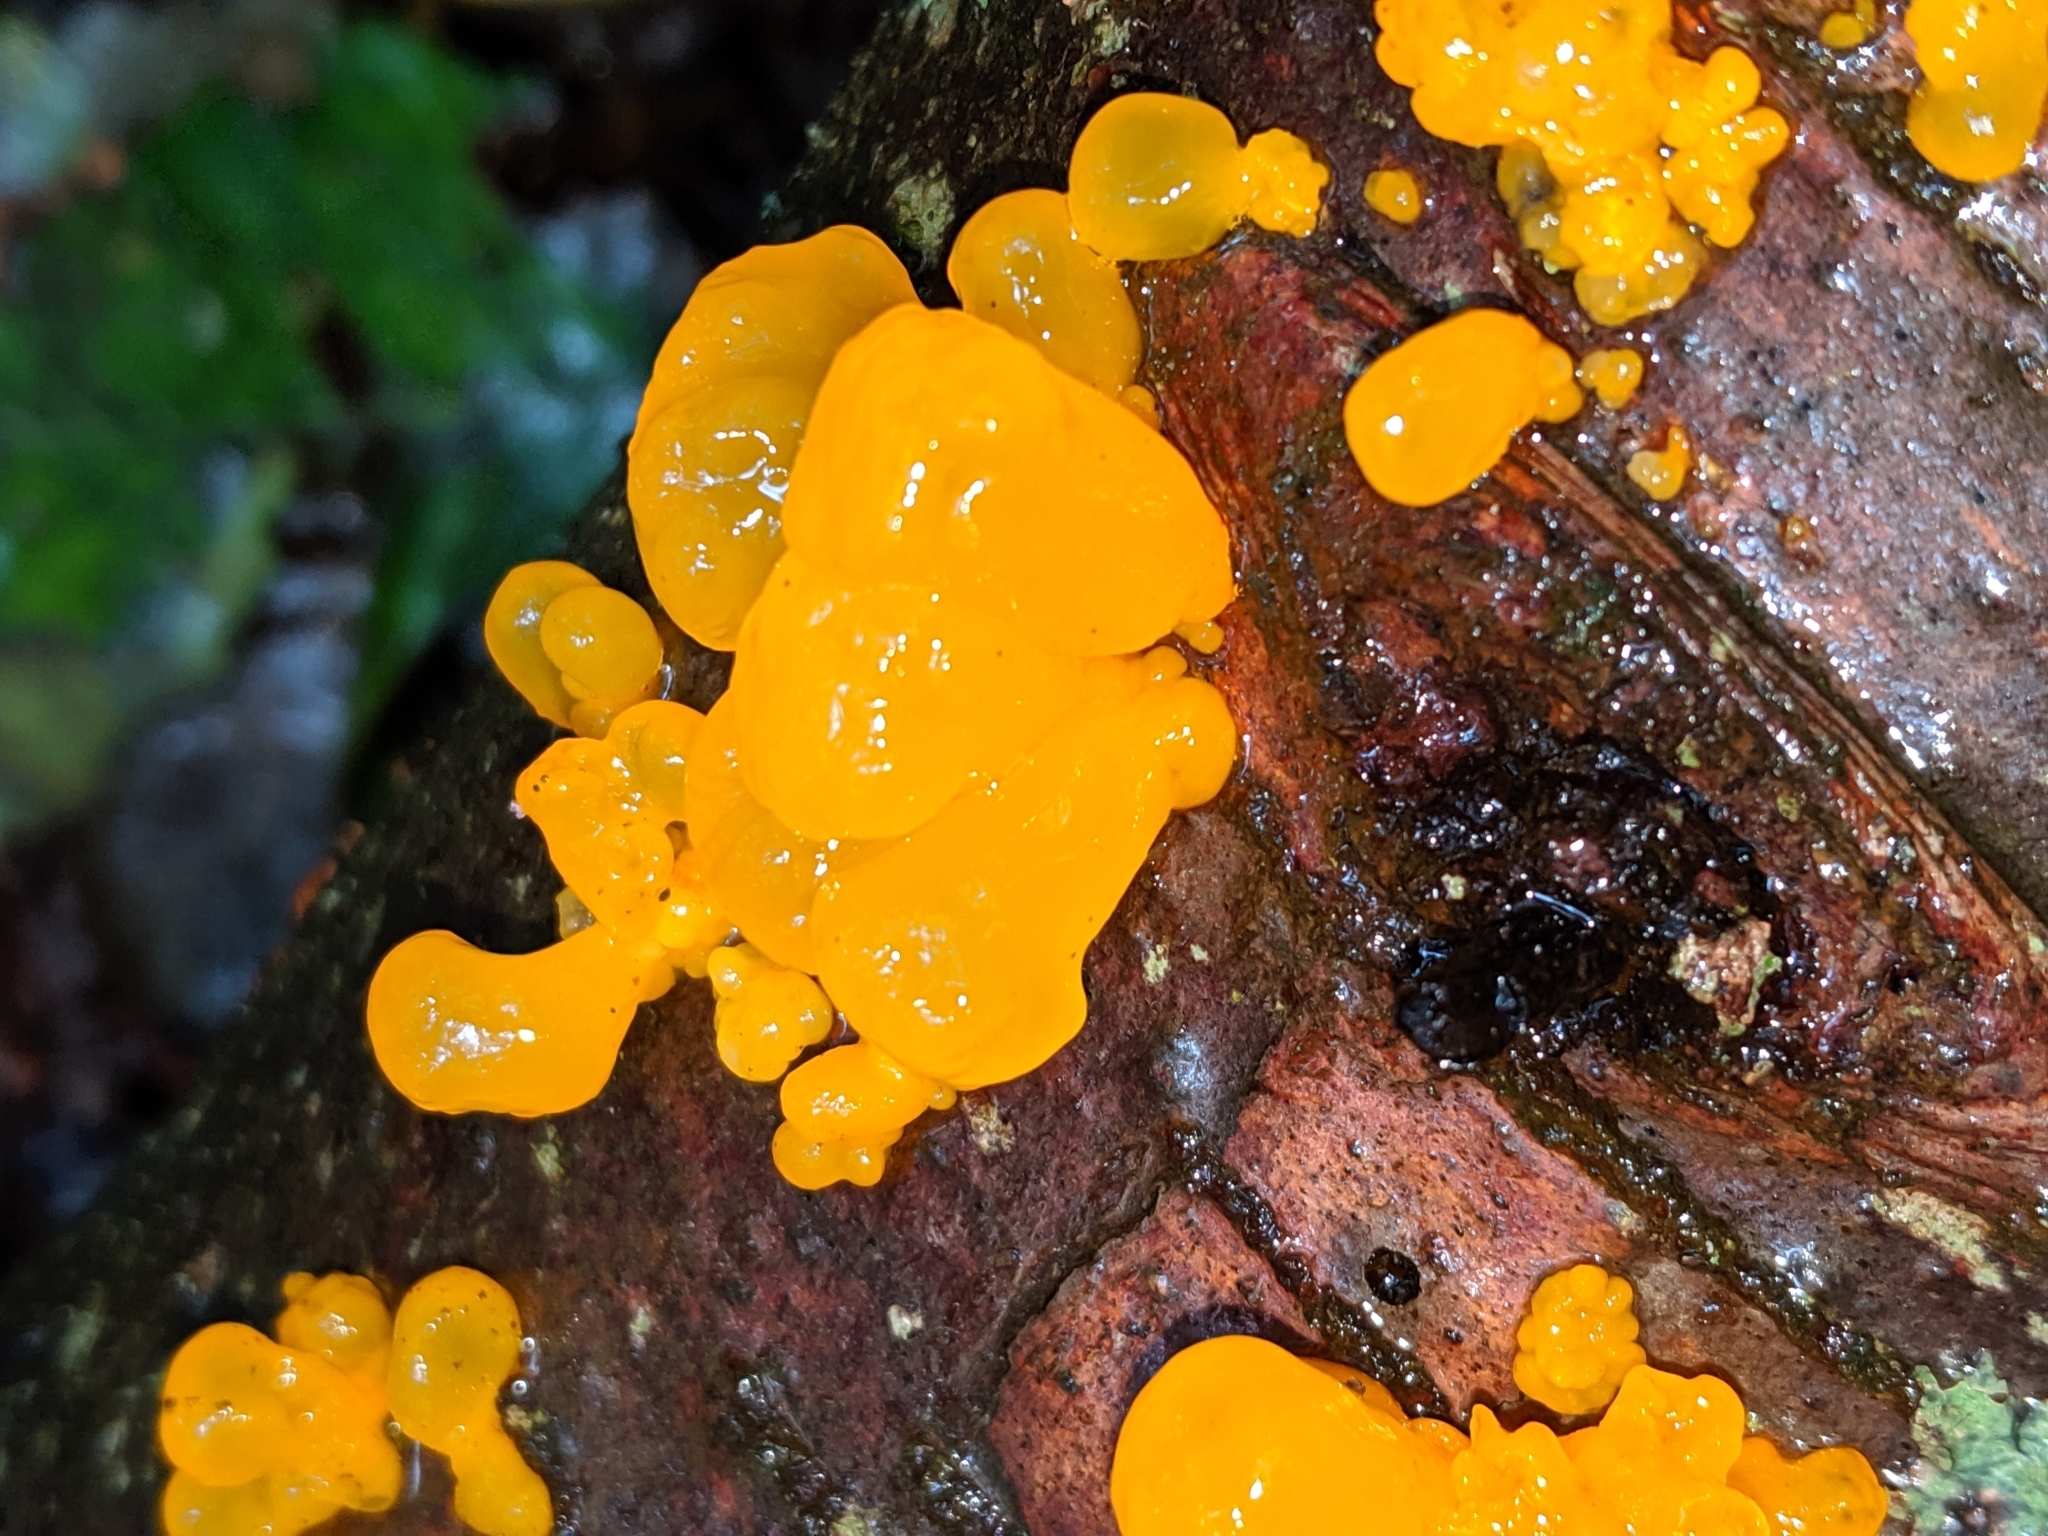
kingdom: Fungi
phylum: Basidiomycota
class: Dacrymycetes
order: Dacrymycetales
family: Dacrymycetaceae
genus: Dacrymyces
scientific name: Dacrymyces chrysospermus
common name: Orange jelly spot
